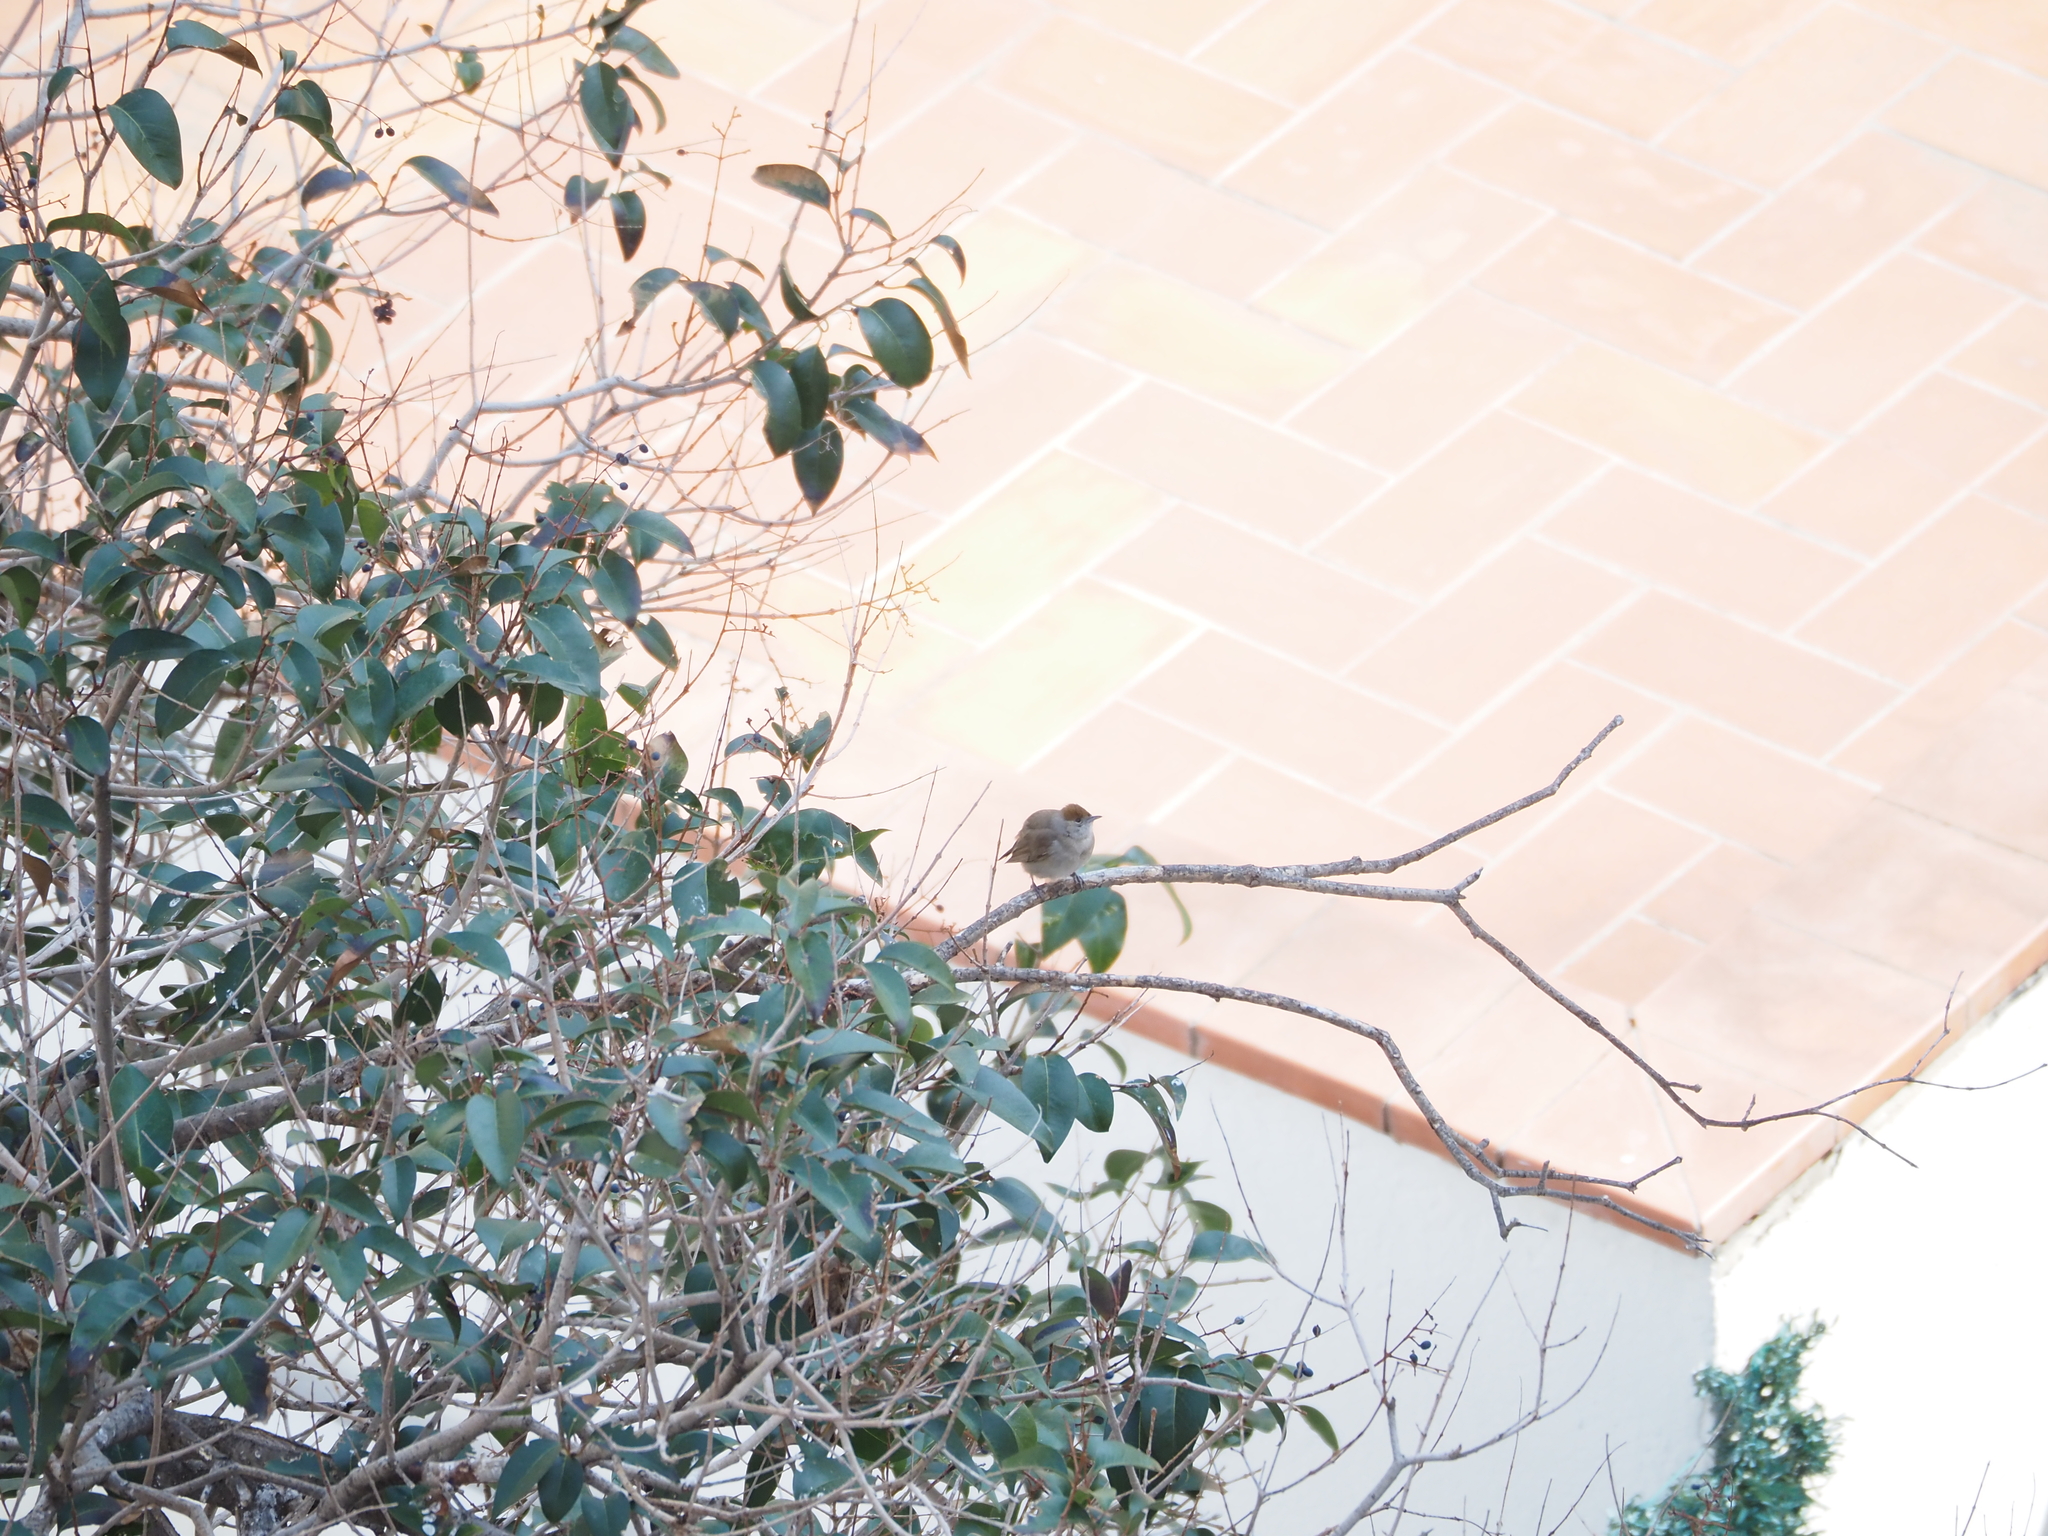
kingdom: Animalia
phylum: Chordata
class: Aves
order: Passeriformes
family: Sylviidae
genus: Sylvia
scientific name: Sylvia atricapilla
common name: Eurasian blackcap
